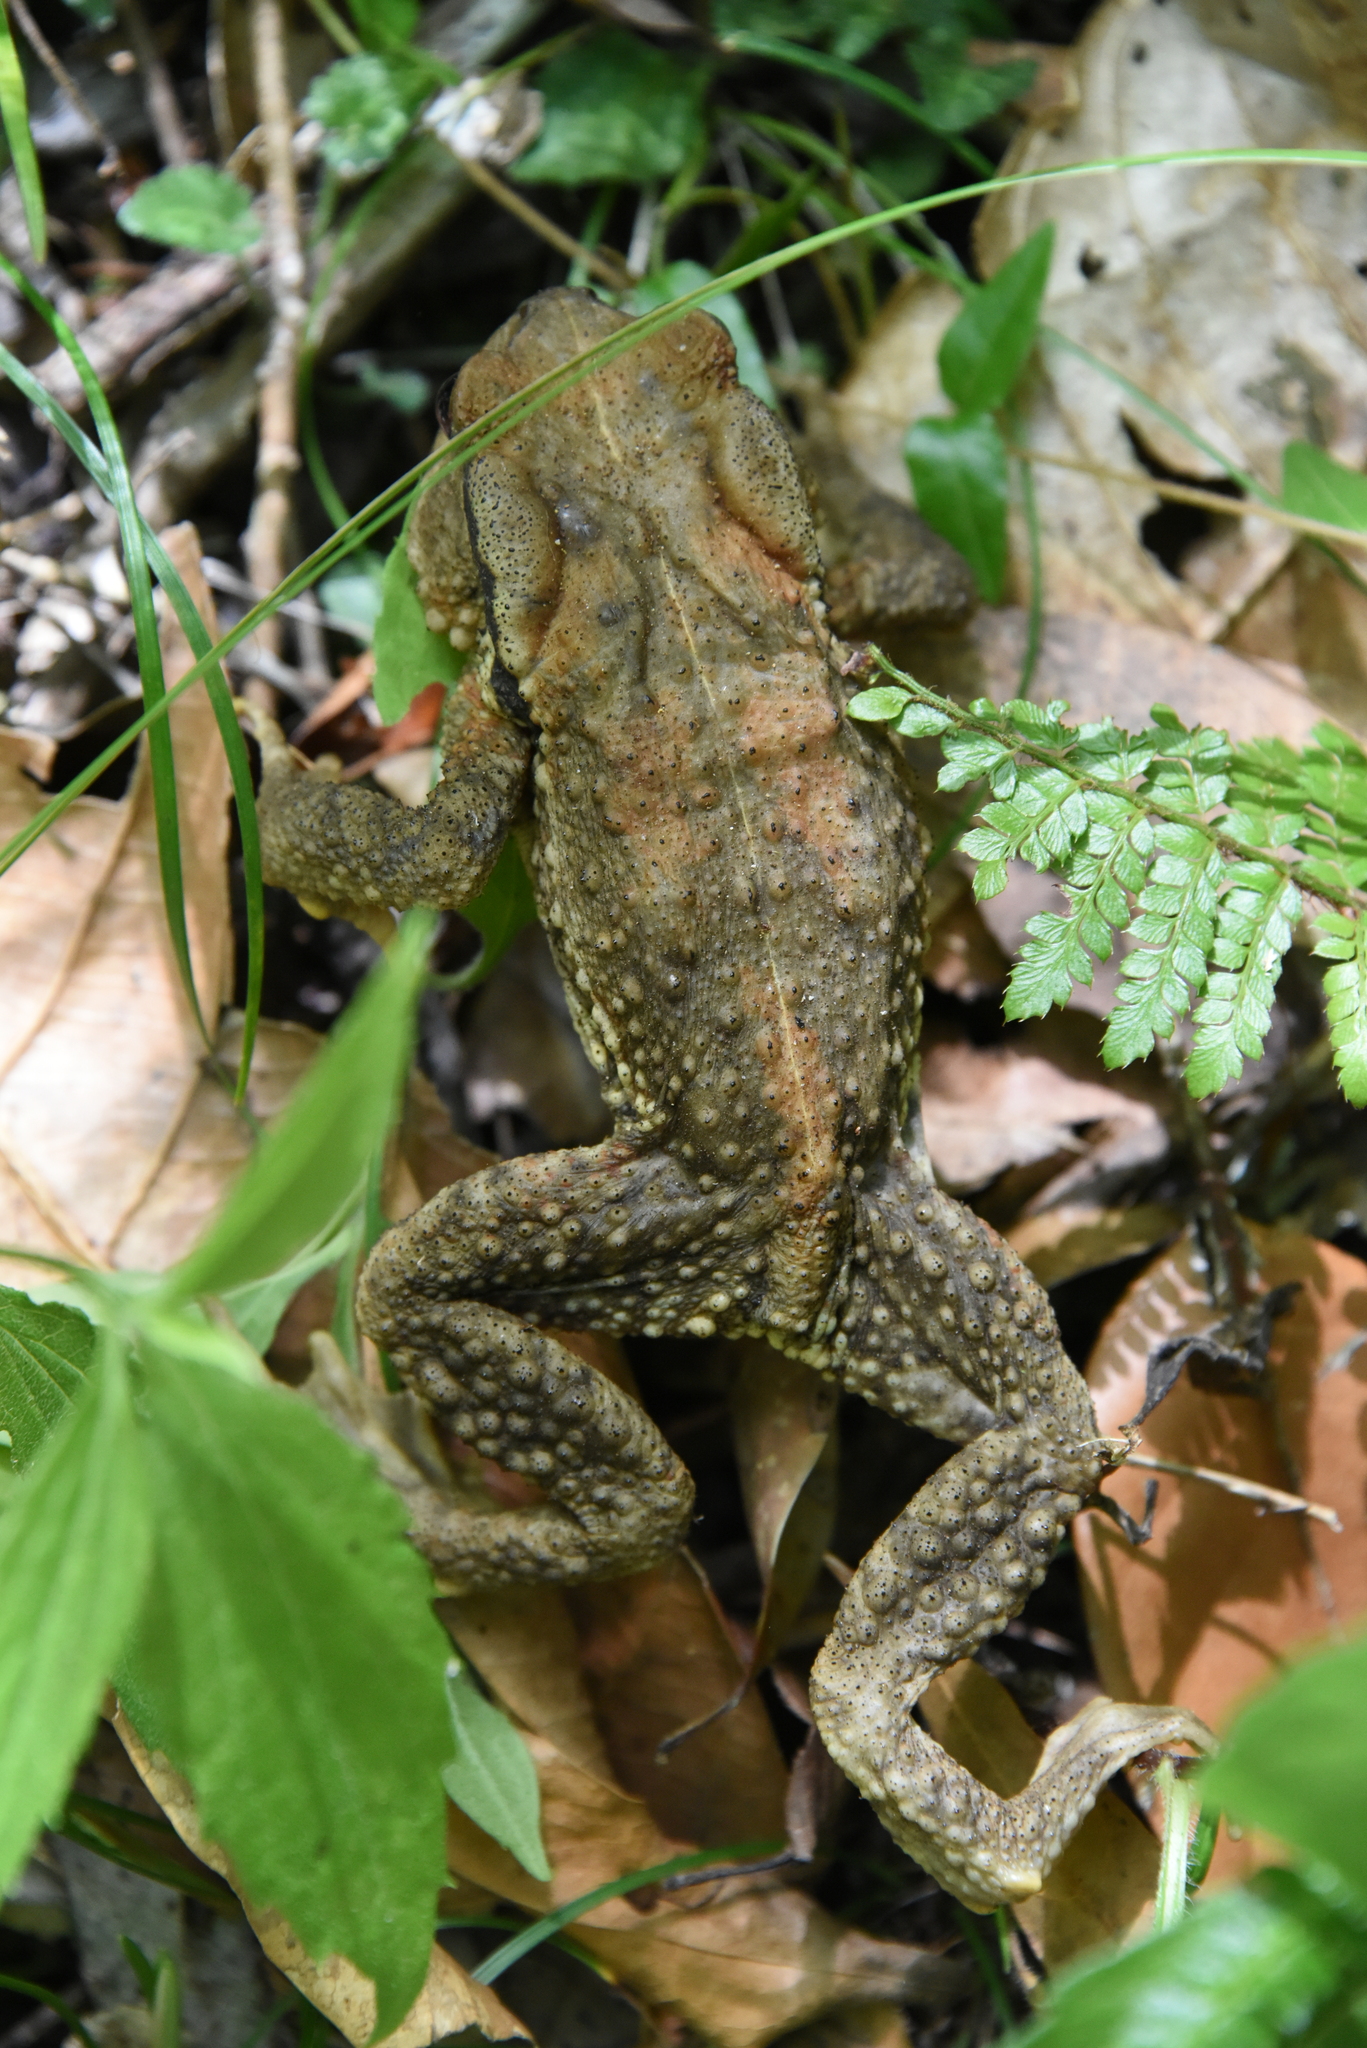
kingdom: Animalia
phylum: Chordata
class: Amphibia
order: Anura
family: Bufonidae
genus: Bufo
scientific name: Bufo bankorensis
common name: Bankor toad
